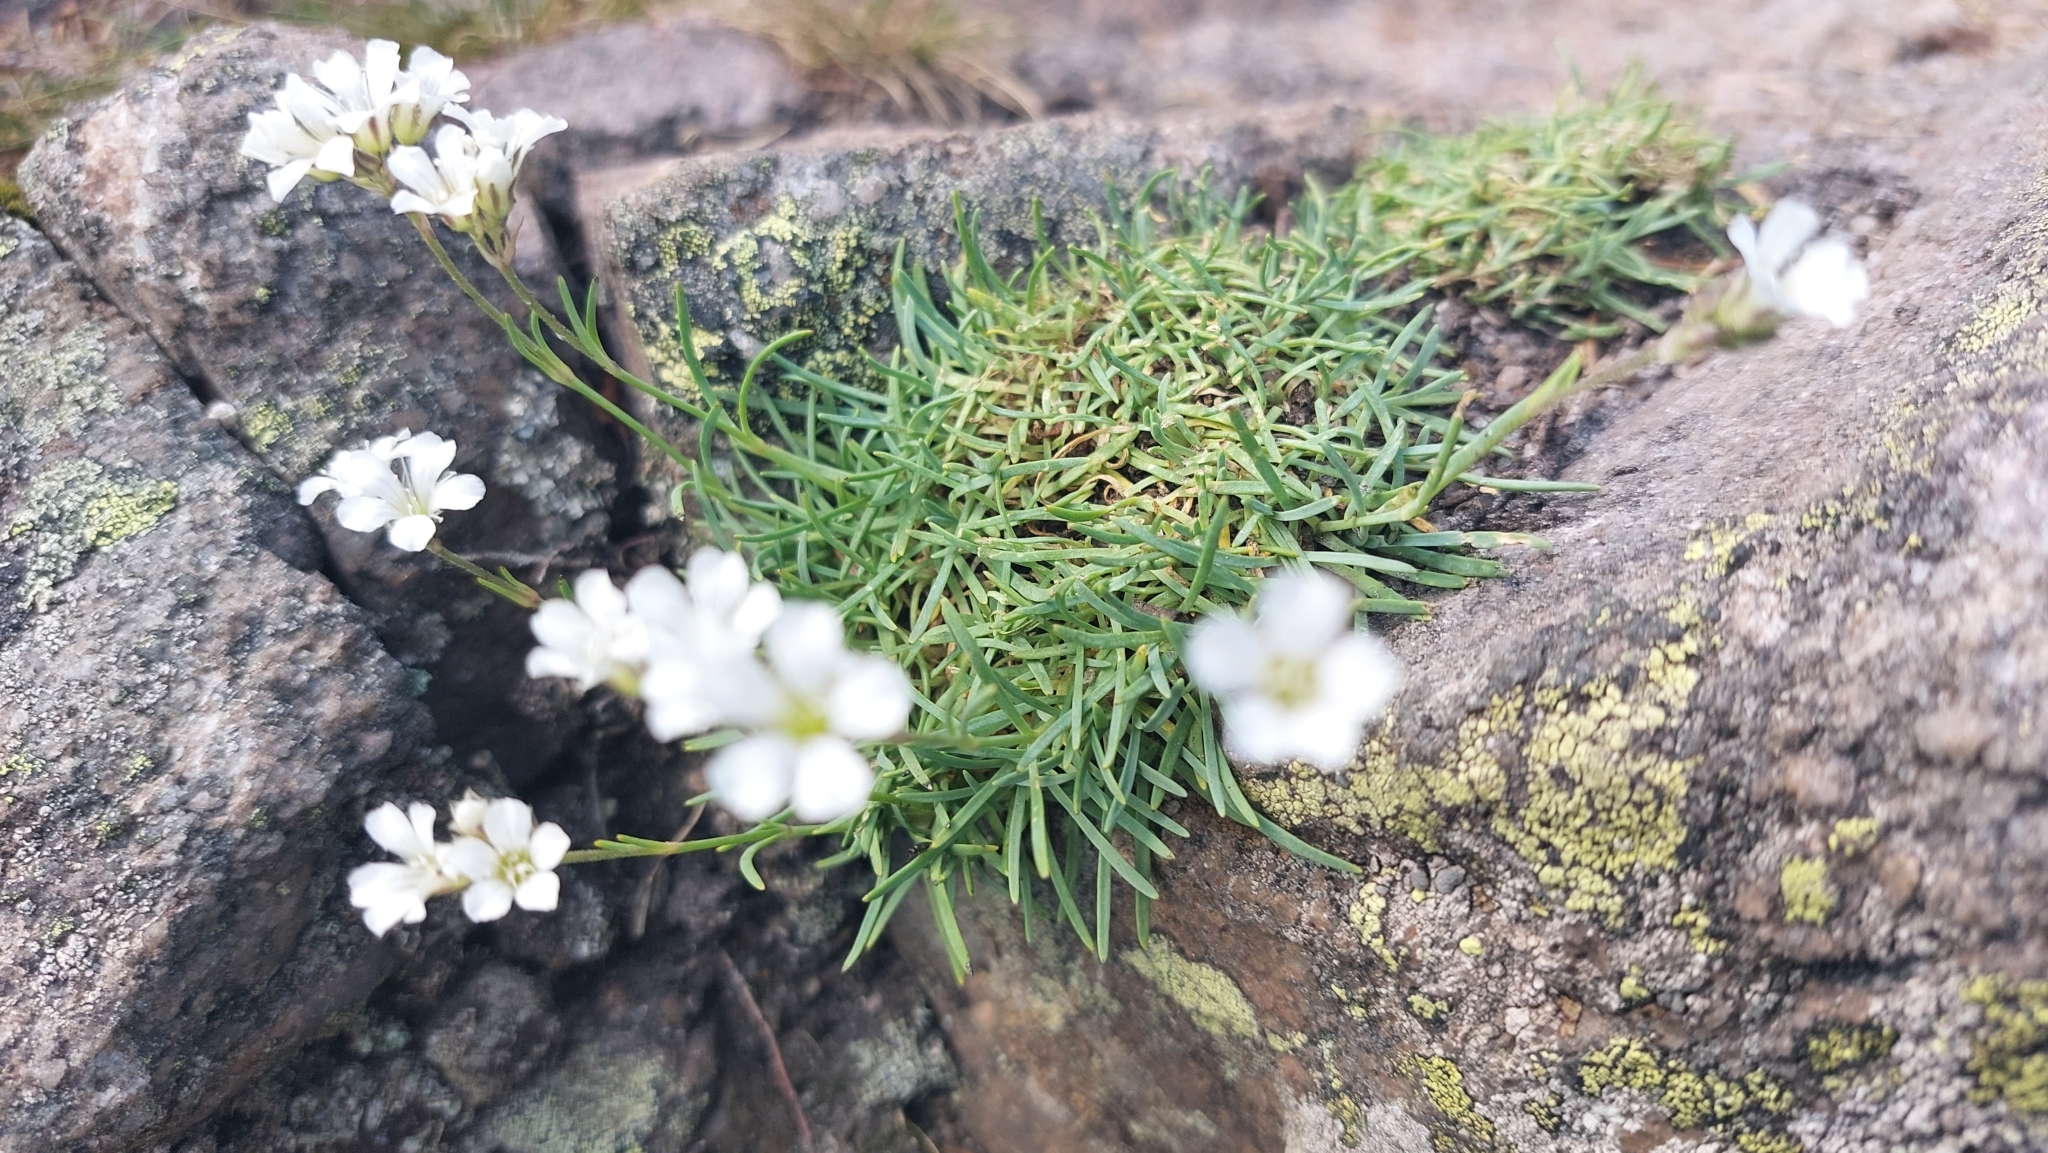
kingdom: Plantae
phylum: Tracheophyta
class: Magnoliopsida
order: Caryophyllales
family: Caryophyllaceae
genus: Gypsophila
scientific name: Gypsophila uralensis
